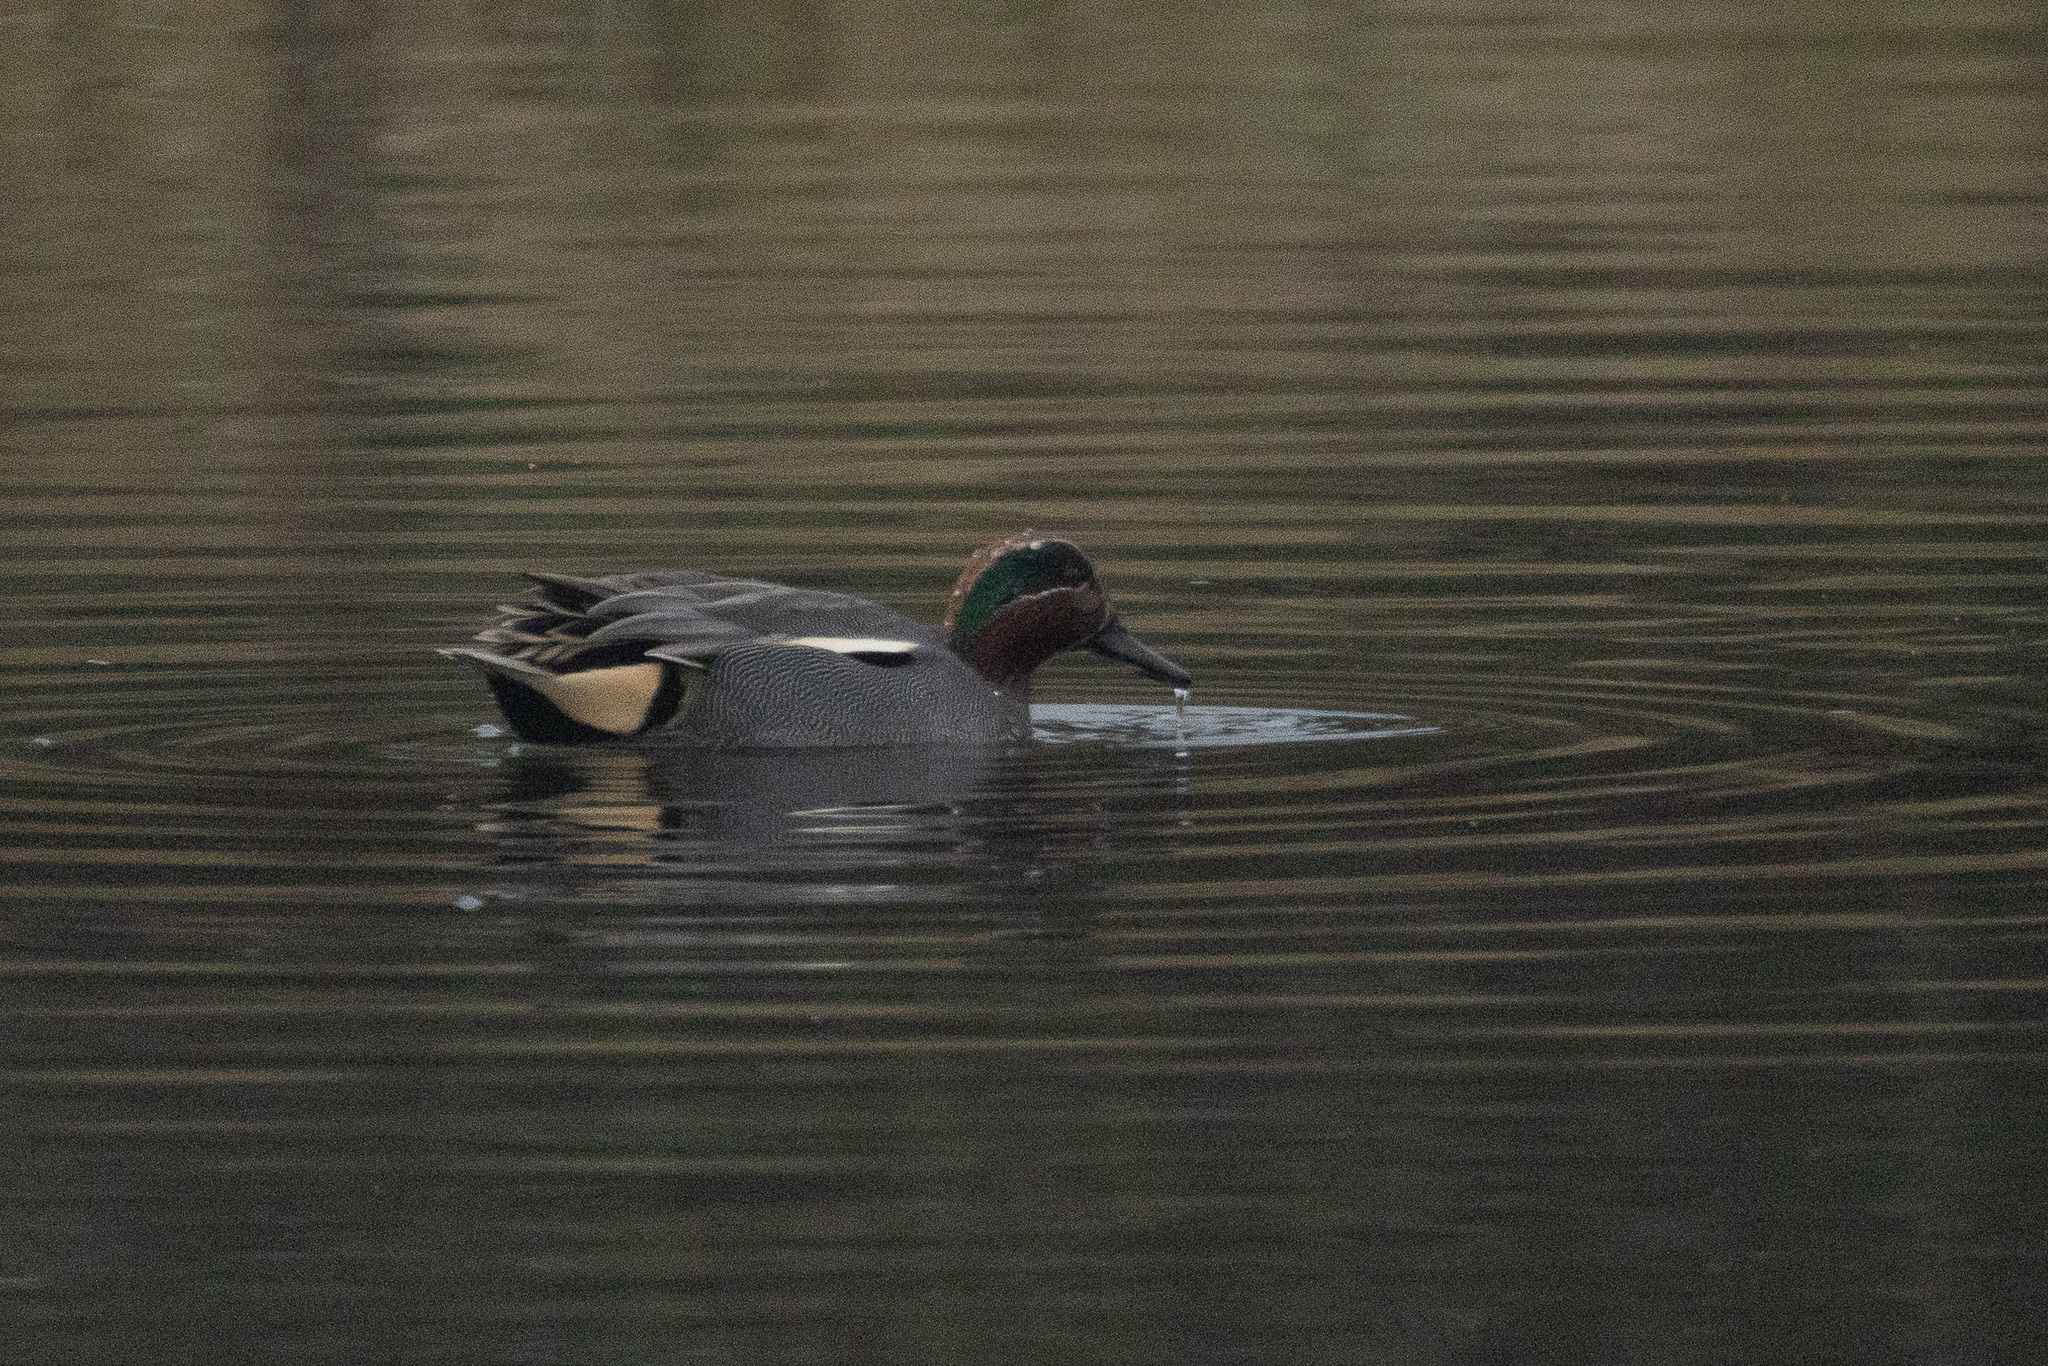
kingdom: Animalia
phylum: Chordata
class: Aves
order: Anseriformes
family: Anatidae
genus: Anas
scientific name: Anas crecca
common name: Eurasian teal
